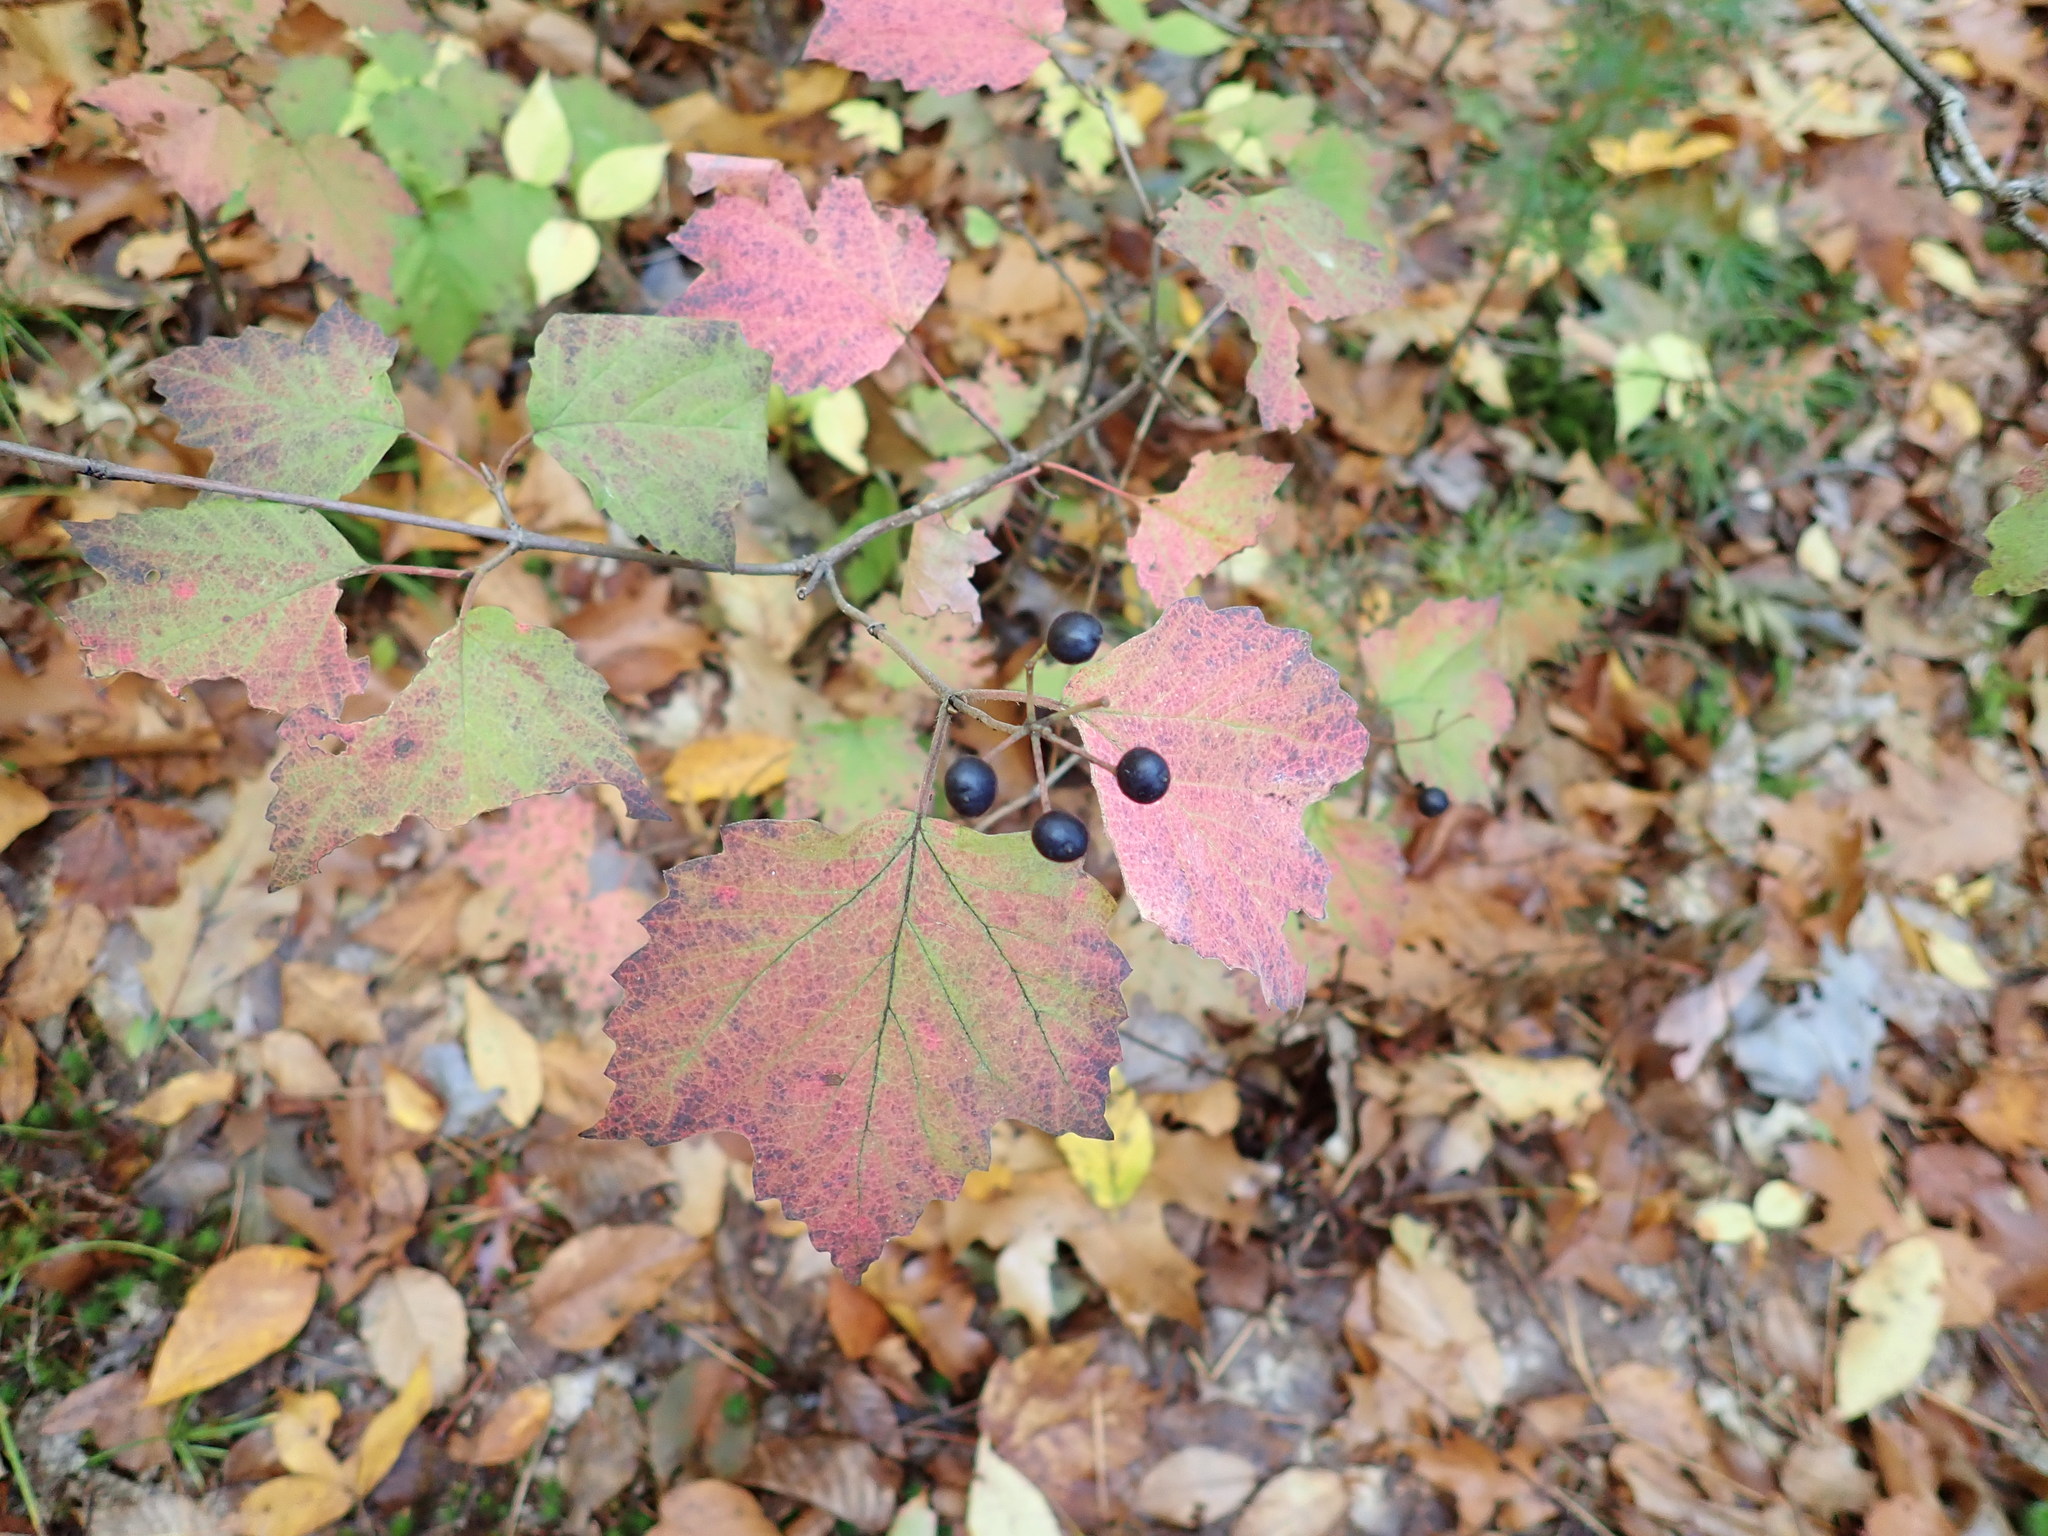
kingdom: Plantae
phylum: Tracheophyta
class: Magnoliopsida
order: Dipsacales
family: Viburnaceae
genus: Viburnum
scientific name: Viburnum acerifolium
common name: Dockmackie
